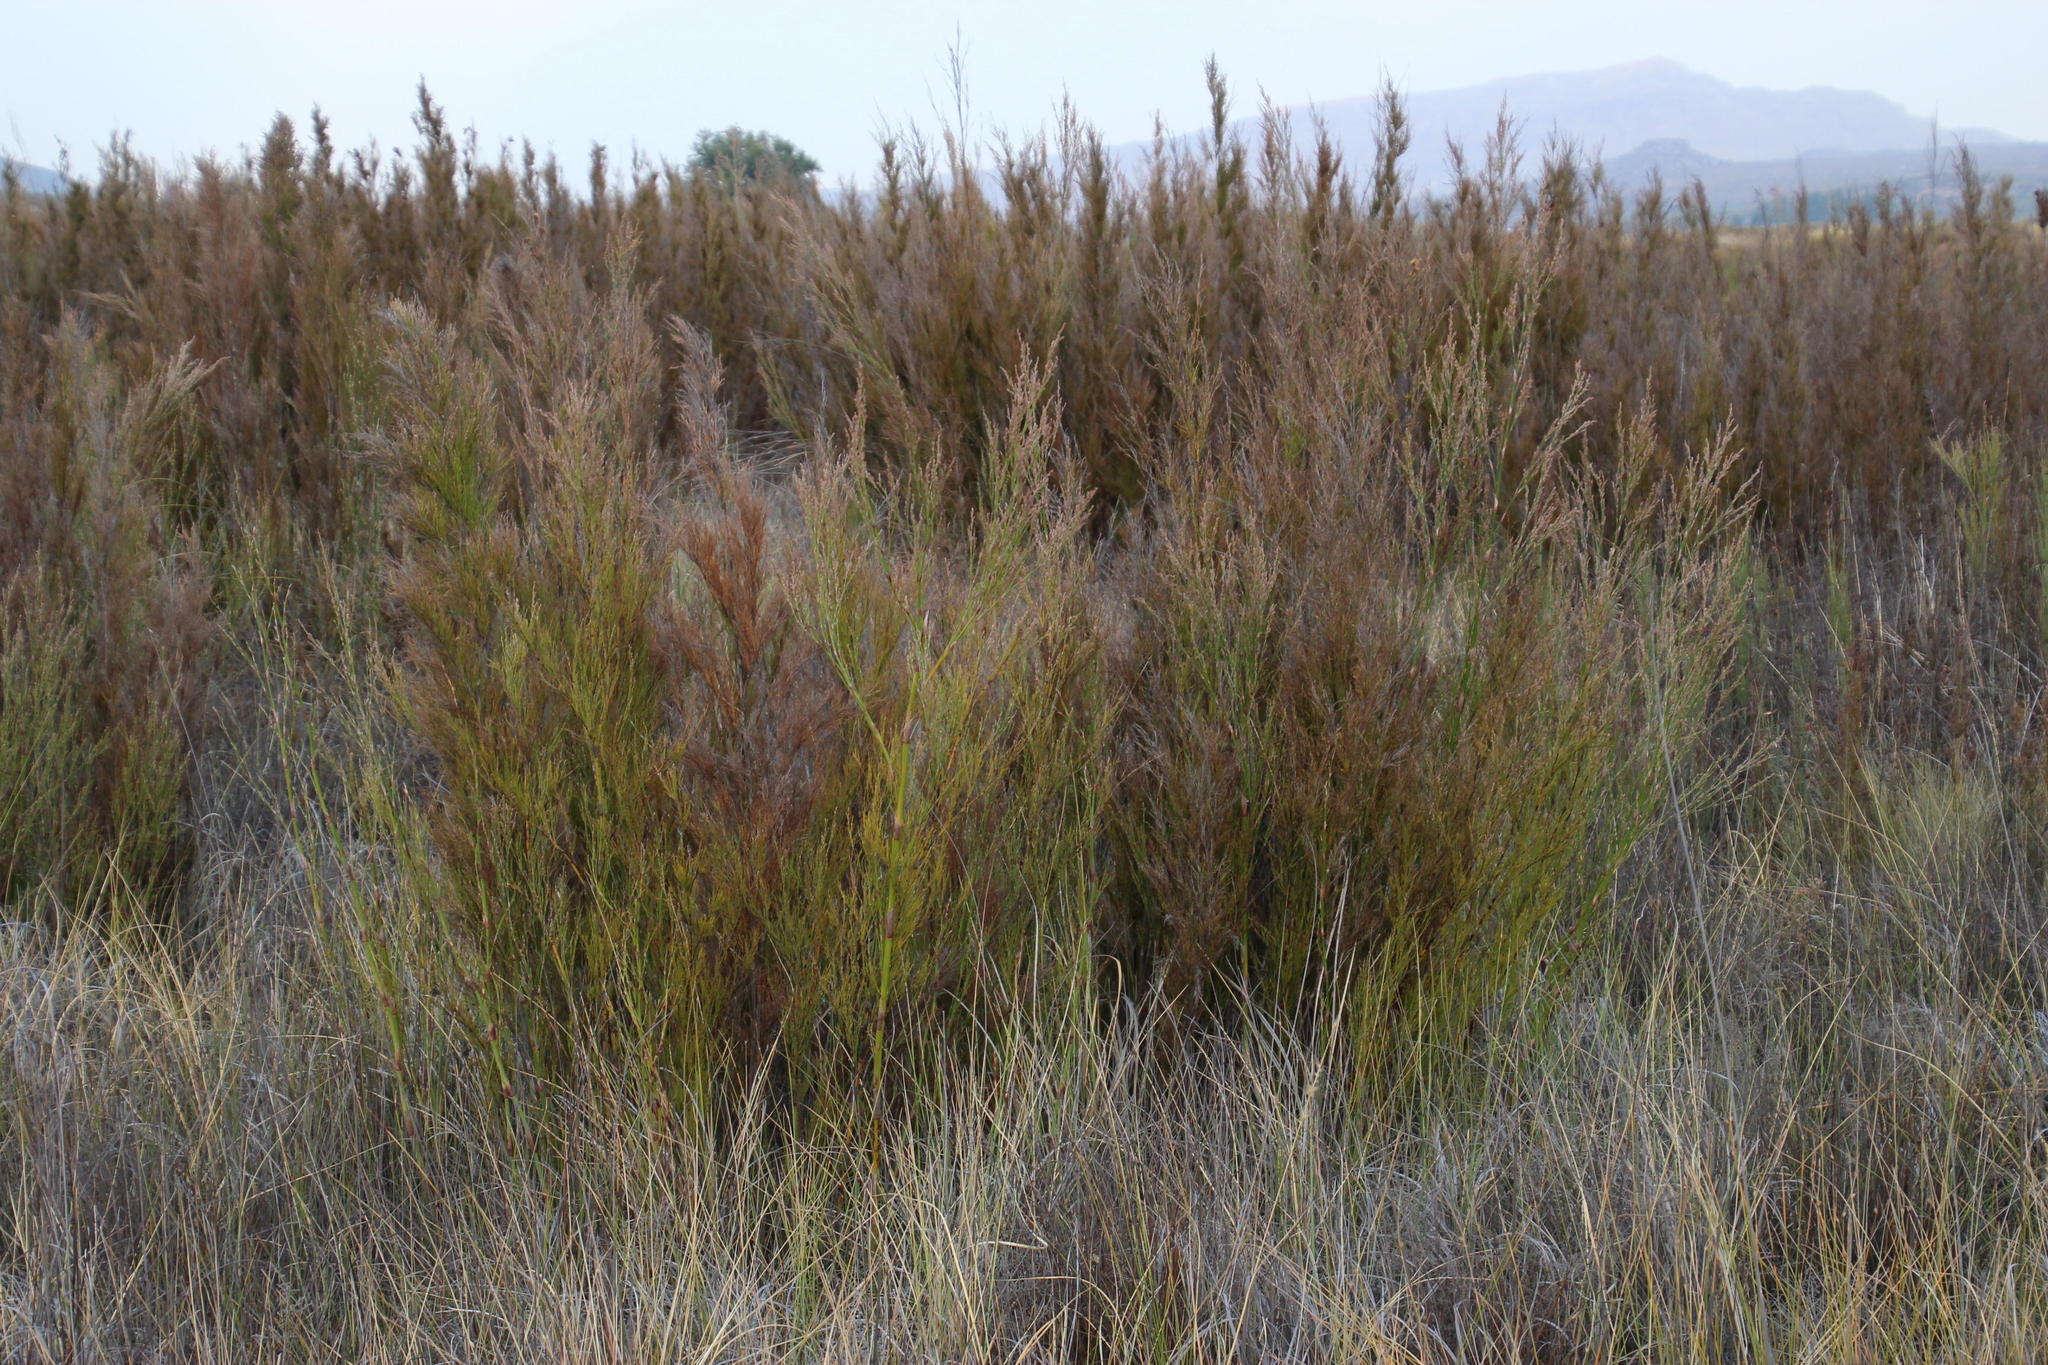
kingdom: Plantae
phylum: Tracheophyta
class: Liliopsida
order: Poales
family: Restionaceae
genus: Restio
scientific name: Restio paniculatus
